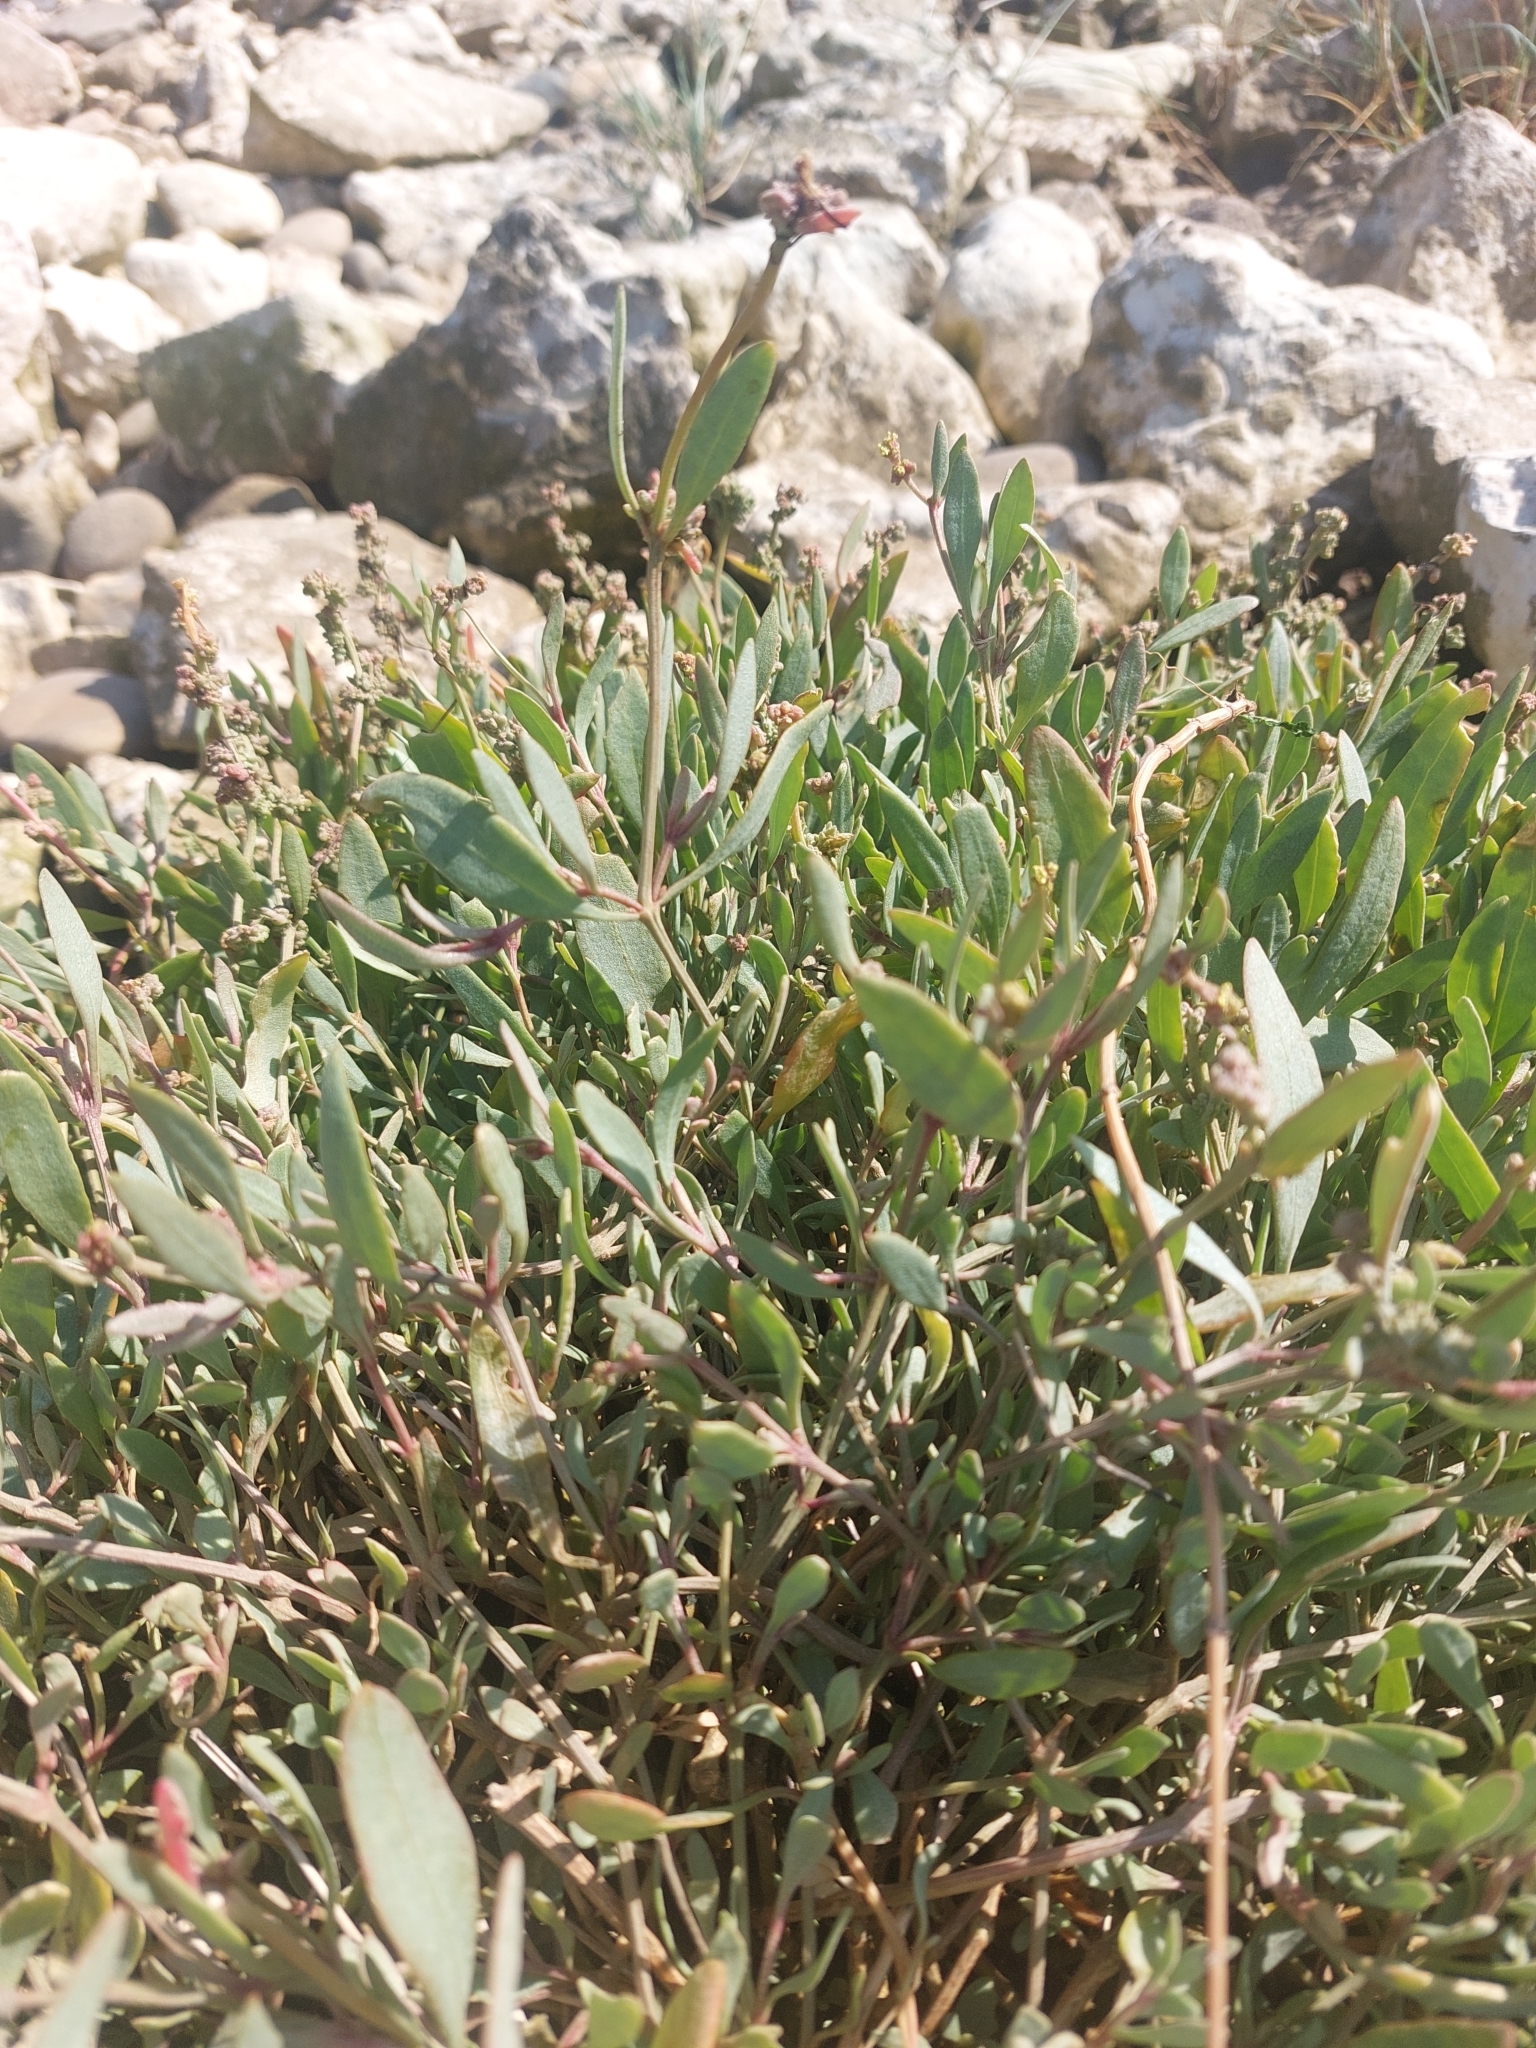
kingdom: Plantae
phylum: Tracheophyta
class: Magnoliopsida
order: Caryophyllales
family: Amaranthaceae
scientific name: Amaranthaceae
